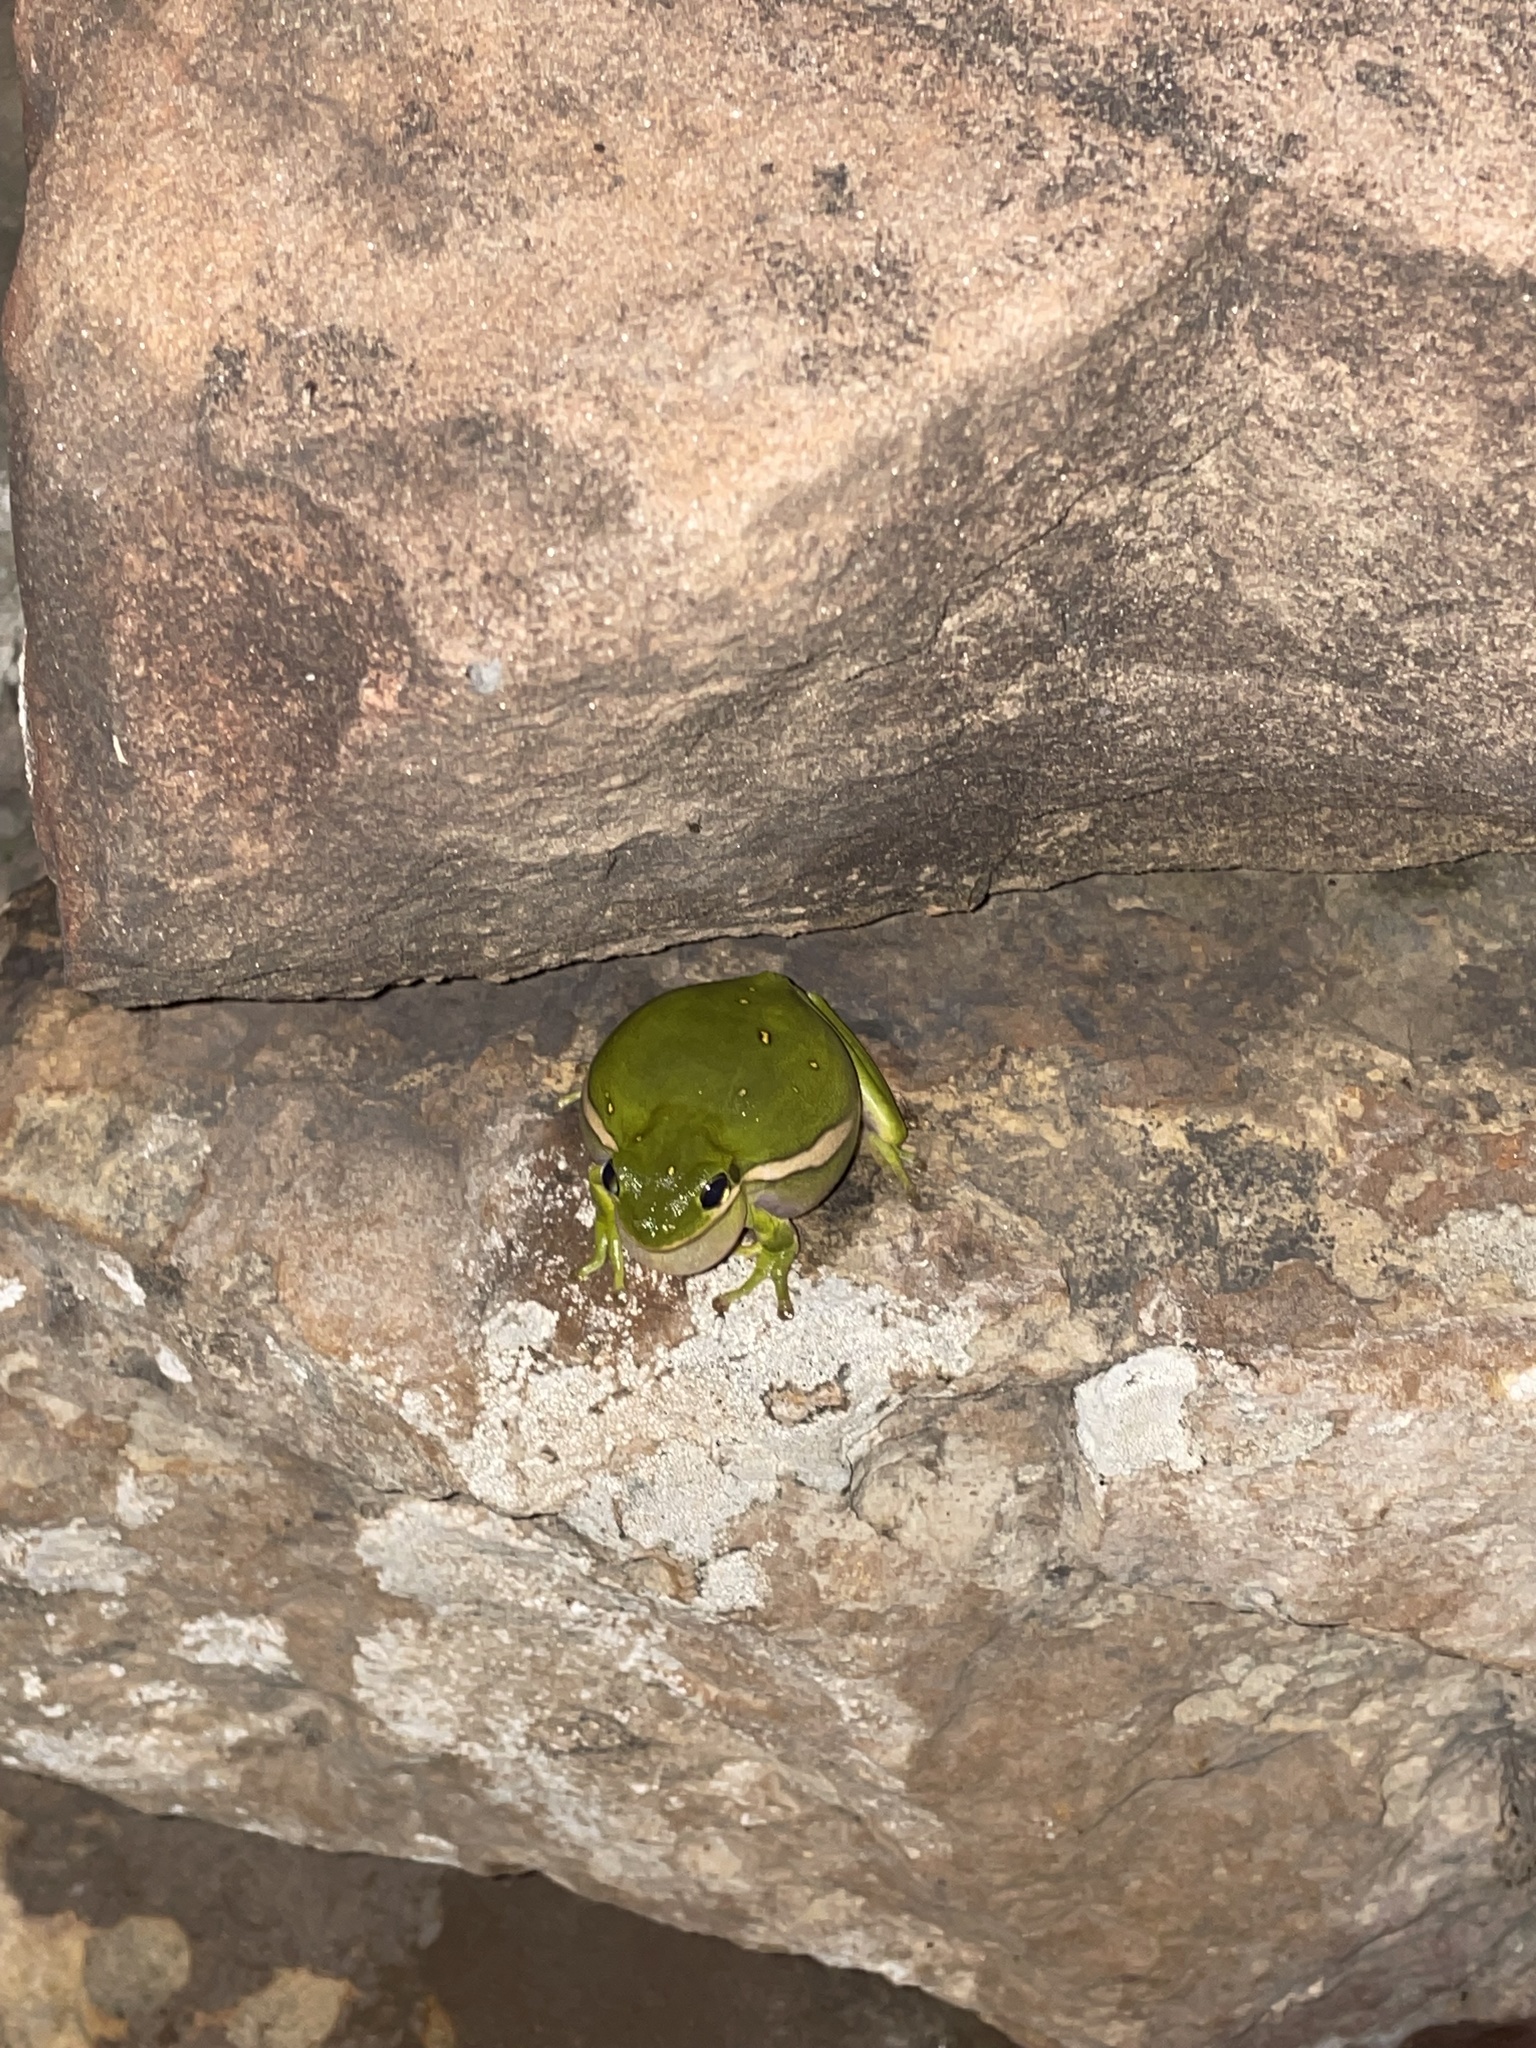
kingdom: Animalia
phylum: Chordata
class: Amphibia
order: Anura
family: Hylidae
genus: Dryophytes
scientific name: Dryophytes cinereus
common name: Green treefrog
